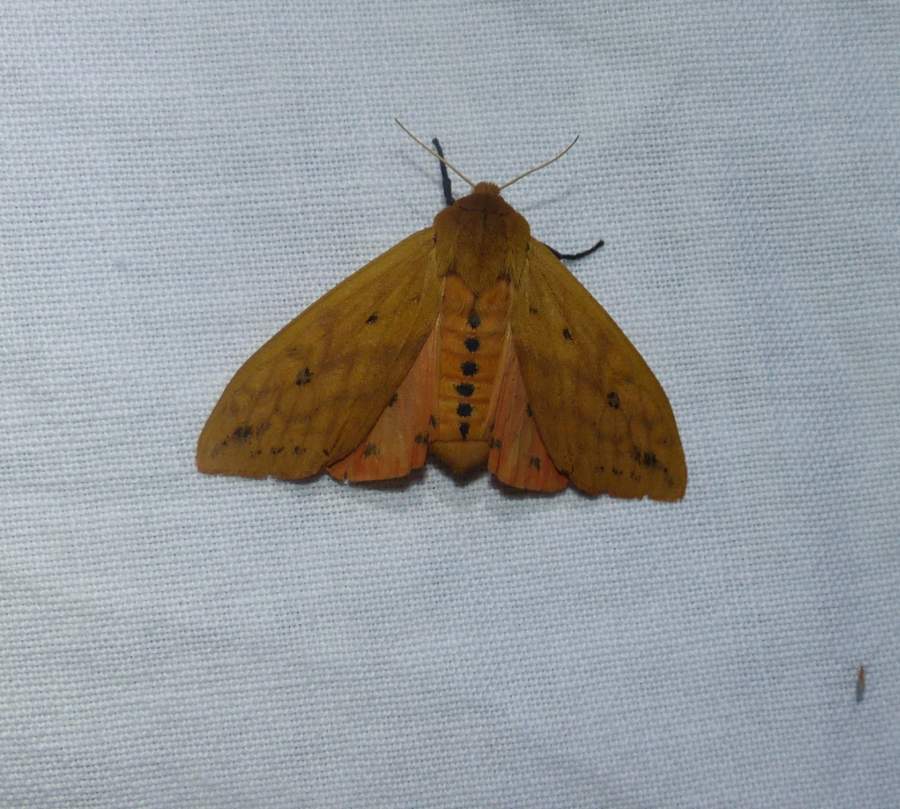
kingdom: Animalia
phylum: Arthropoda
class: Insecta
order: Lepidoptera
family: Erebidae
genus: Pyrrharctia
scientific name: Pyrrharctia isabella
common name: Isabella tiger moth
